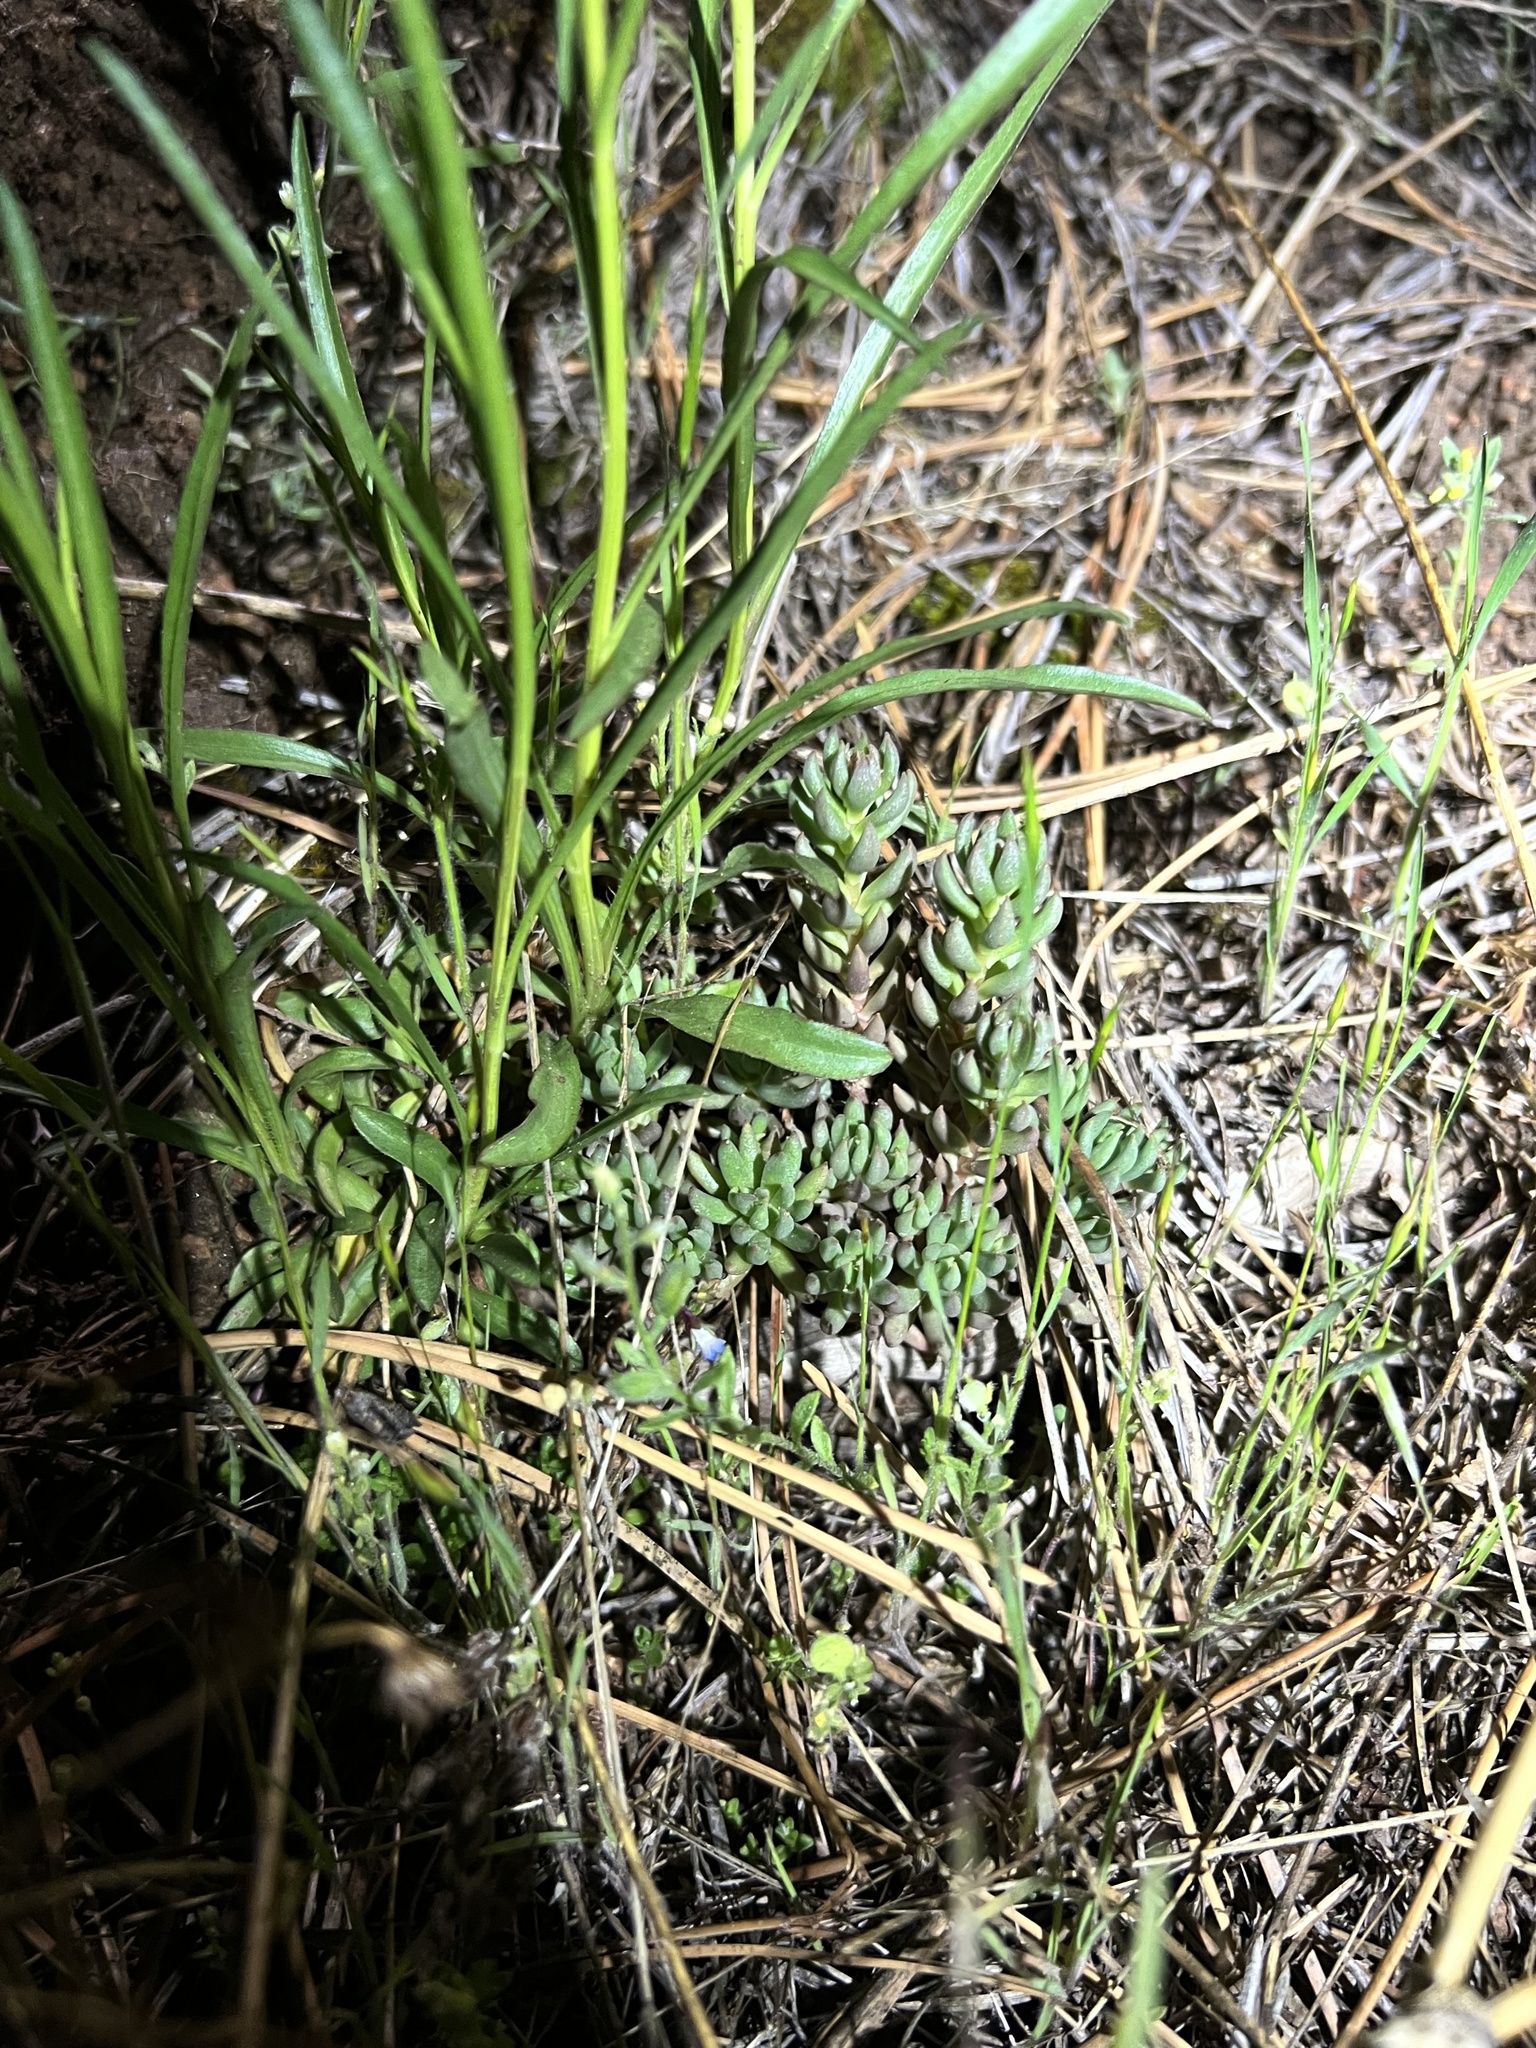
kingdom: Plantae
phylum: Tracheophyta
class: Magnoliopsida
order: Saxifragales
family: Crassulaceae
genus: Sedum
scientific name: Sedum lanceolatum
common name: Common stonecrop
